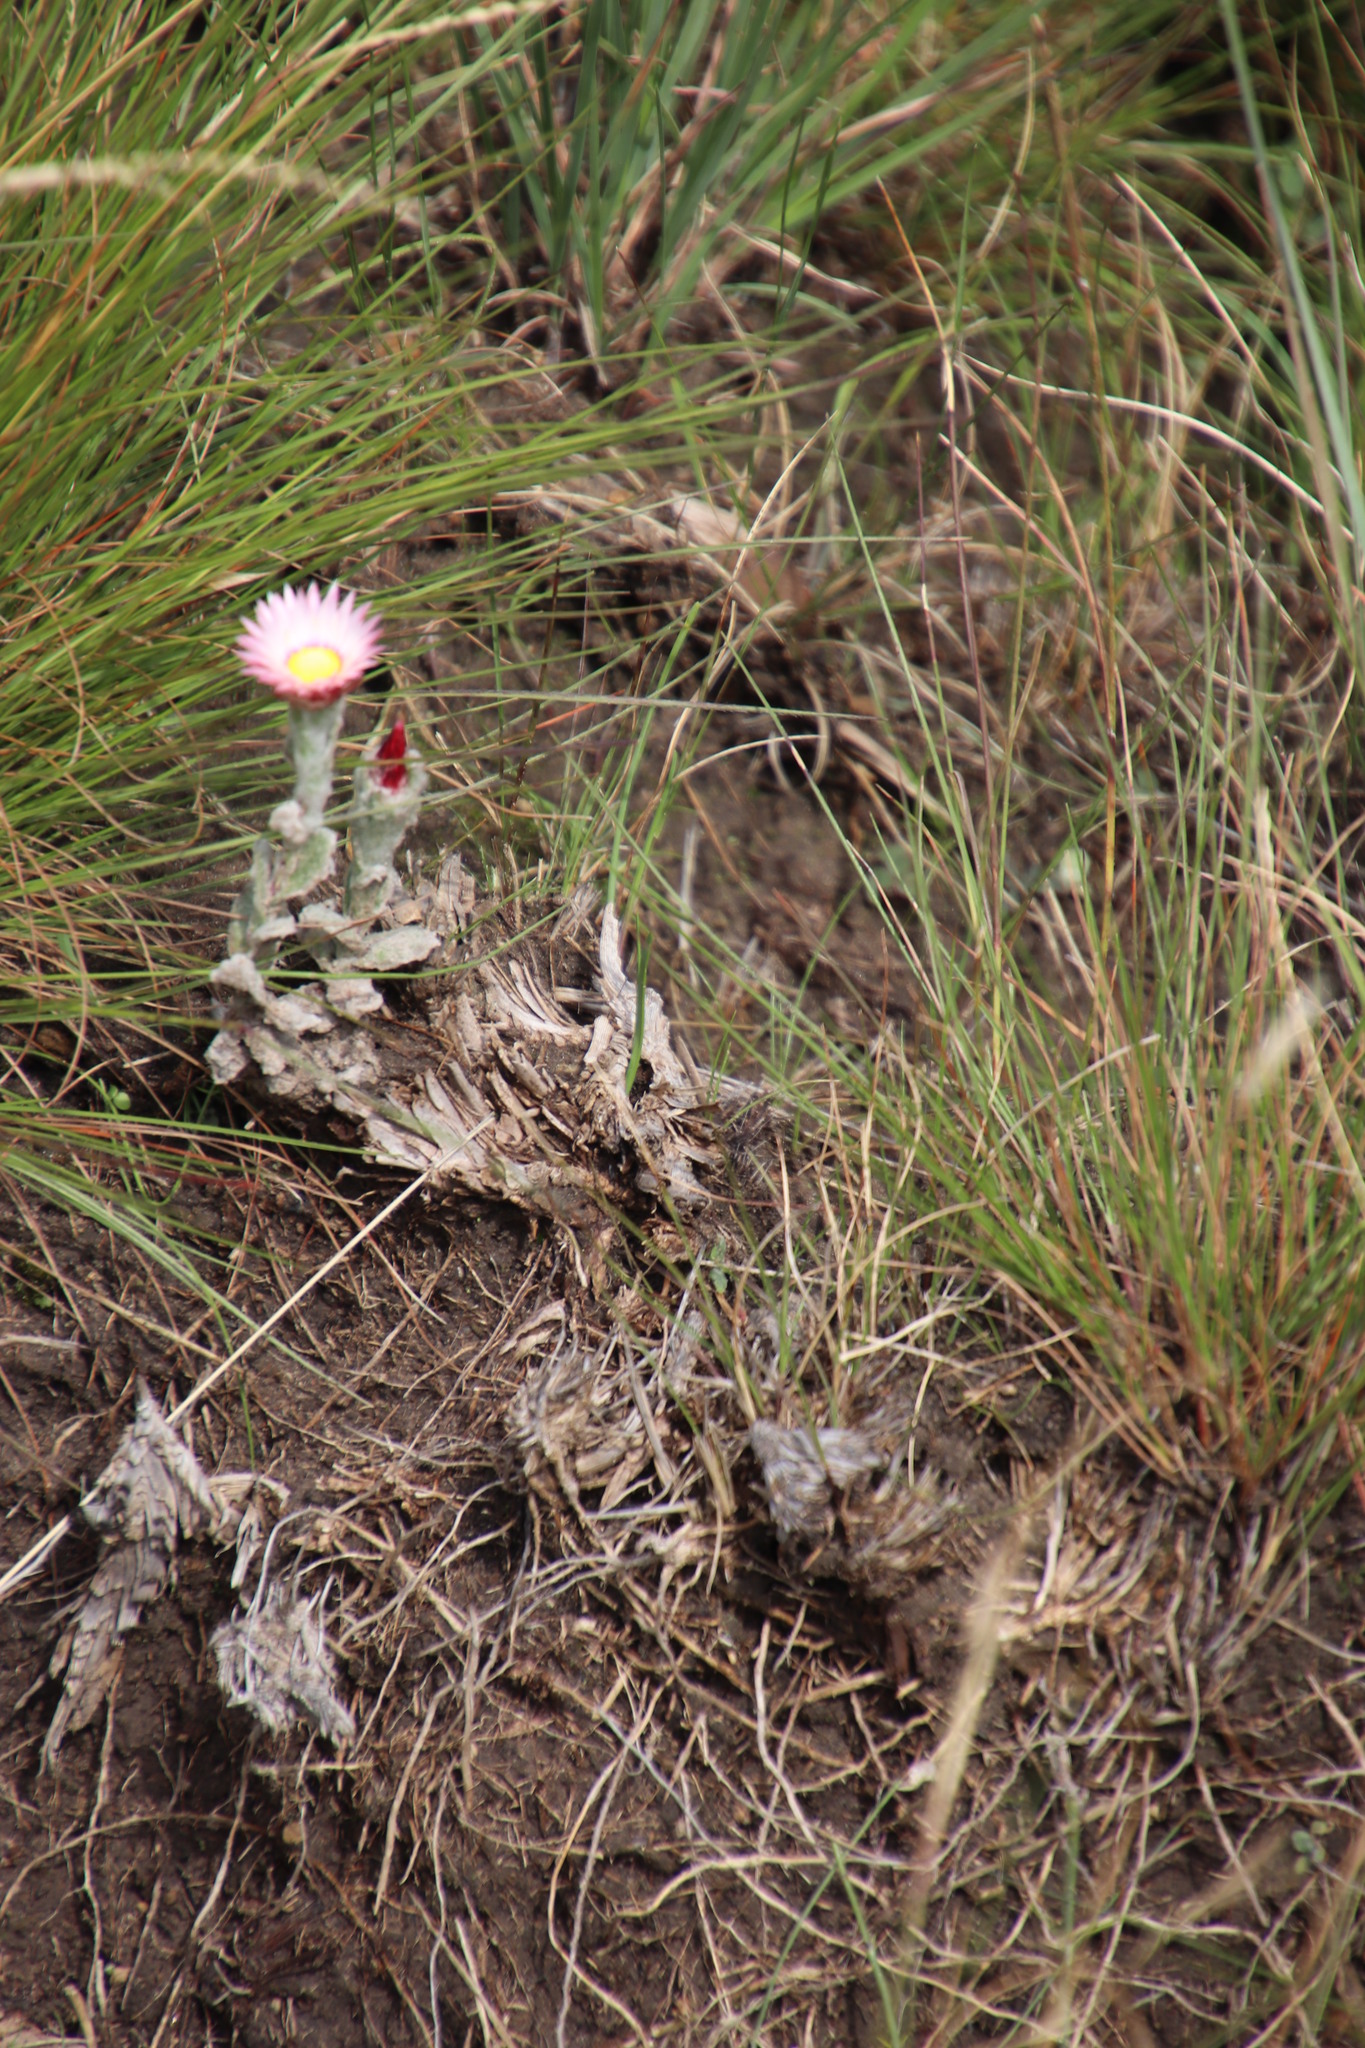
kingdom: Plantae
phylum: Tracheophyta
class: Magnoliopsida
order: Asterales
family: Asteraceae
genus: Helichrysum
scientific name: Helichrysum adenocarpum
